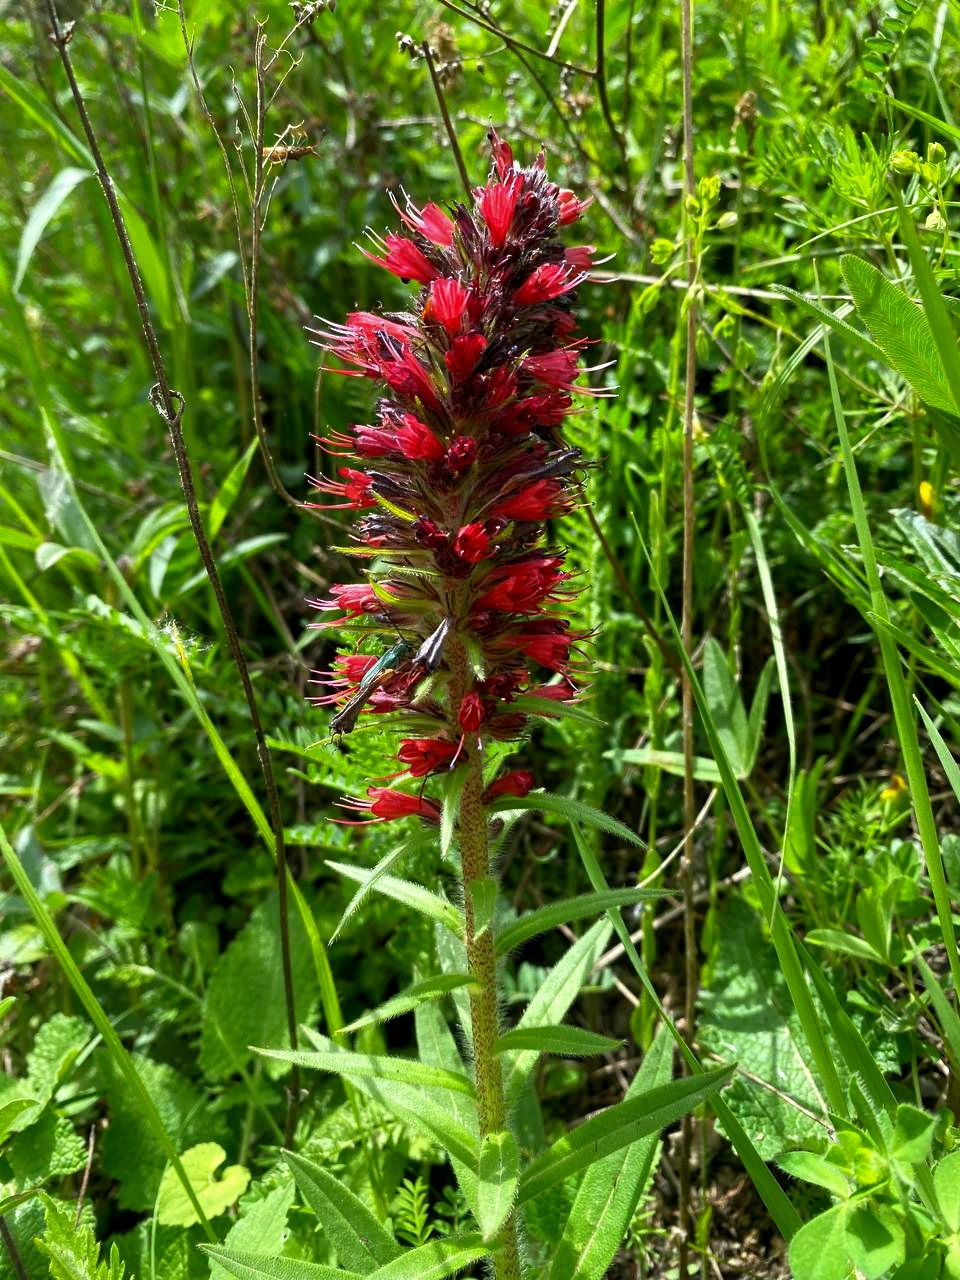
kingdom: Plantae
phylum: Tracheophyta
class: Magnoliopsida
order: Boraginales
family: Boraginaceae
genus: Pontechium
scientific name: Pontechium maculatum
